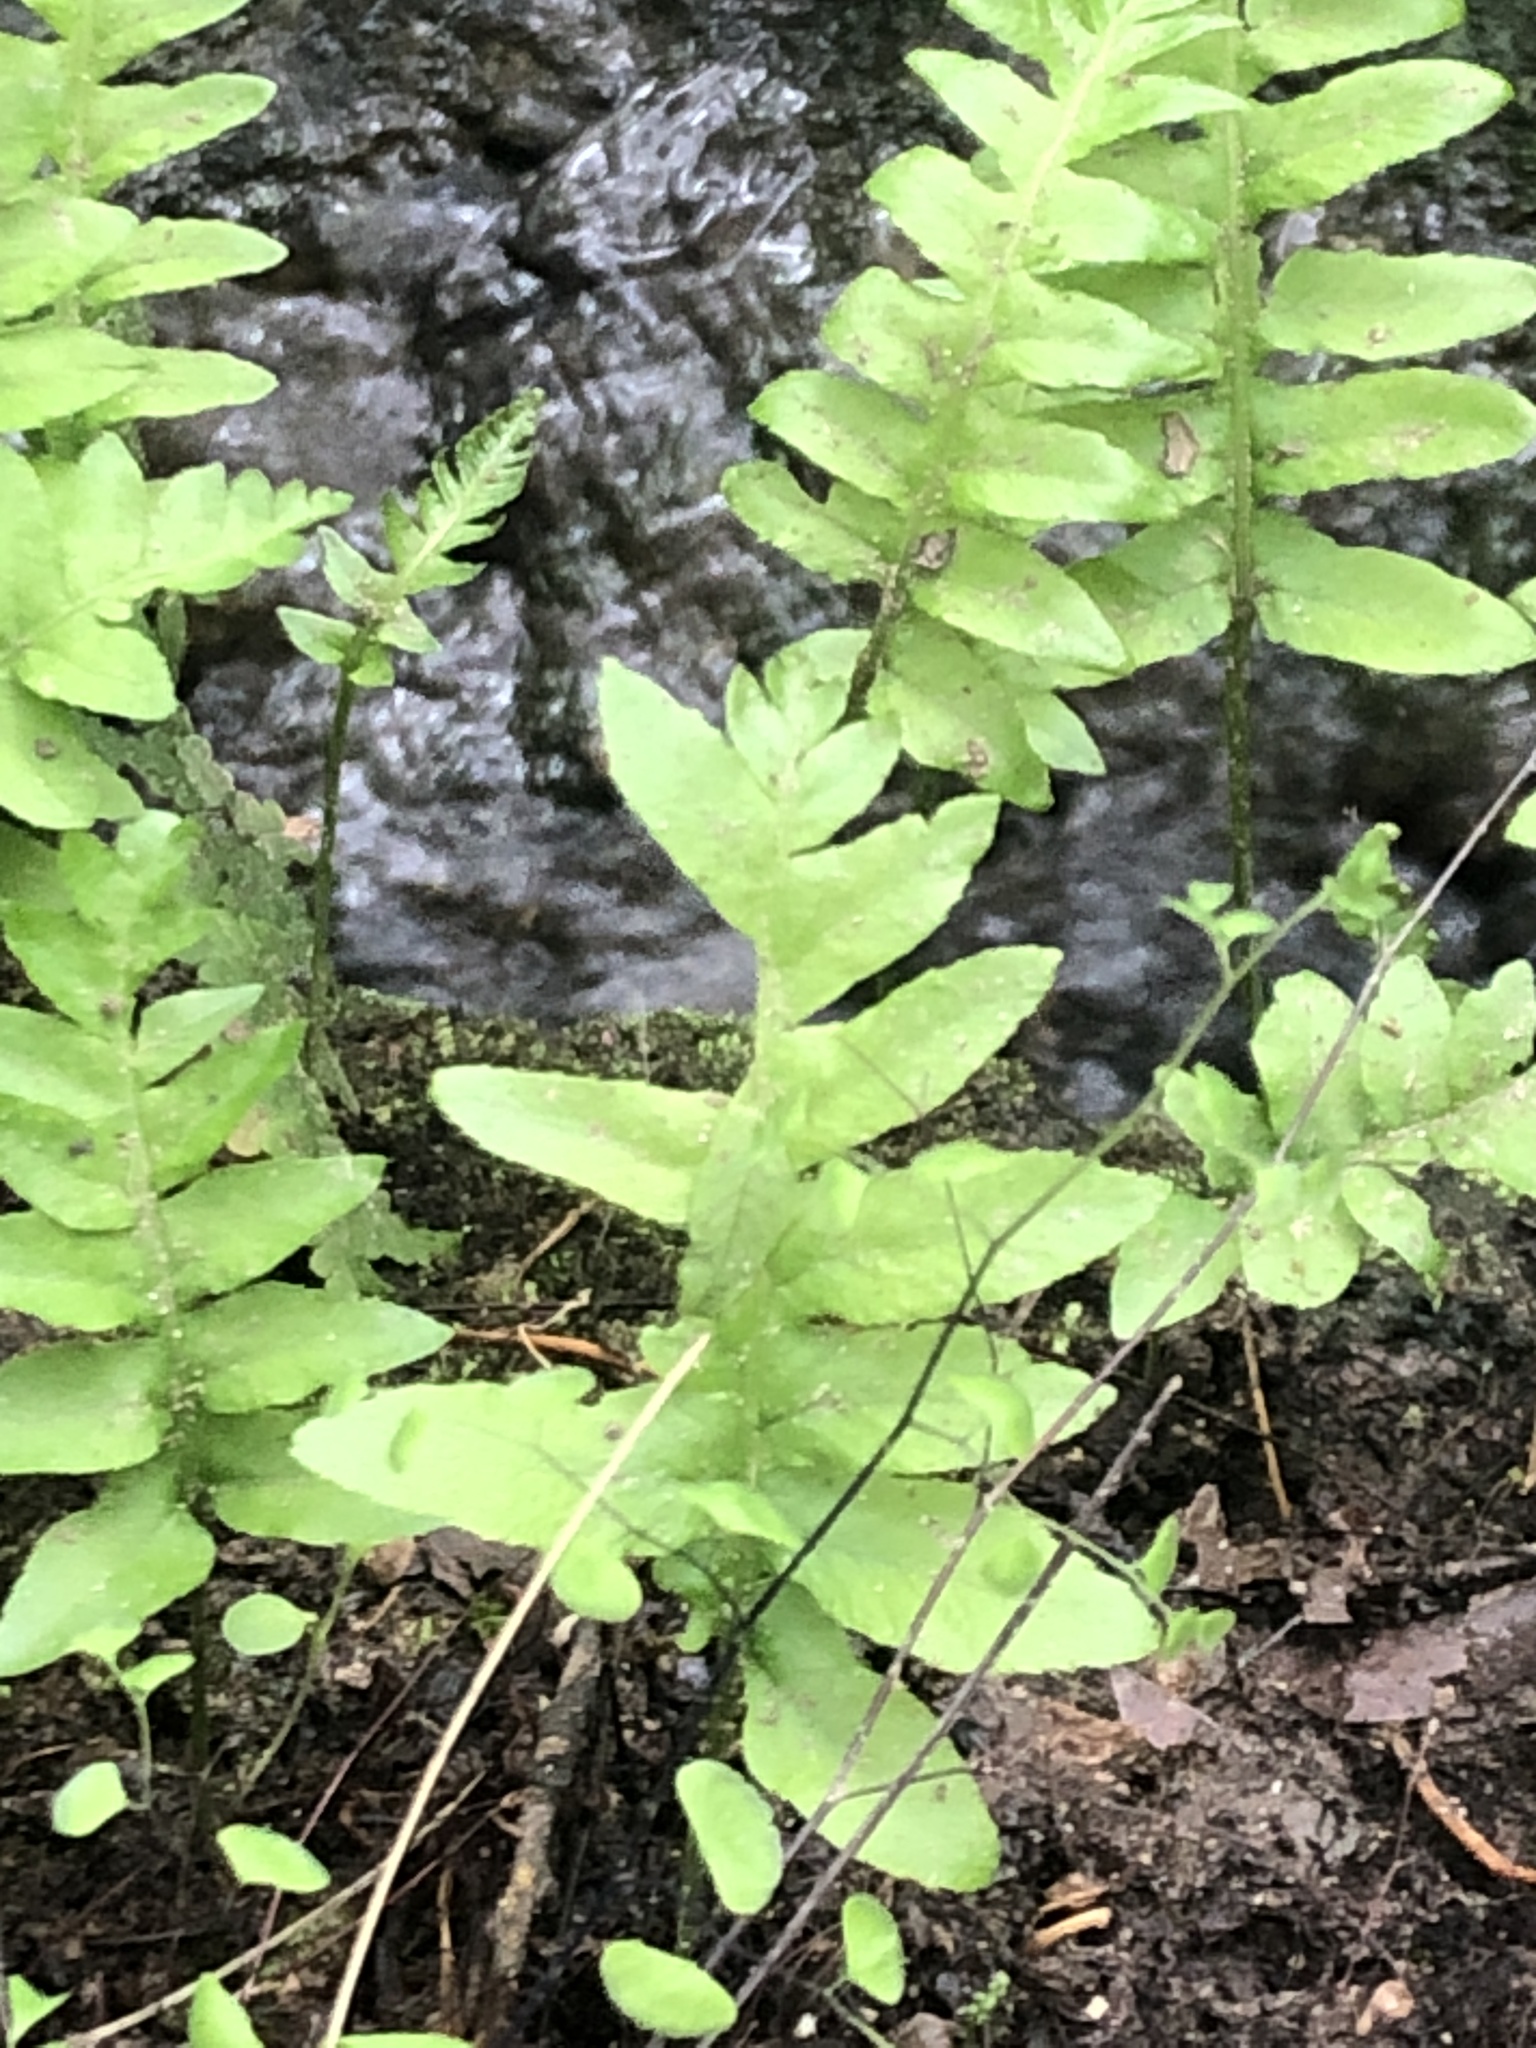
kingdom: Plantae
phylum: Tracheophyta
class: Polypodiopsida
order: Polypodiales
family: Polypodiaceae
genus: Polypodium
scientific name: Polypodium californicum
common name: California polypody
